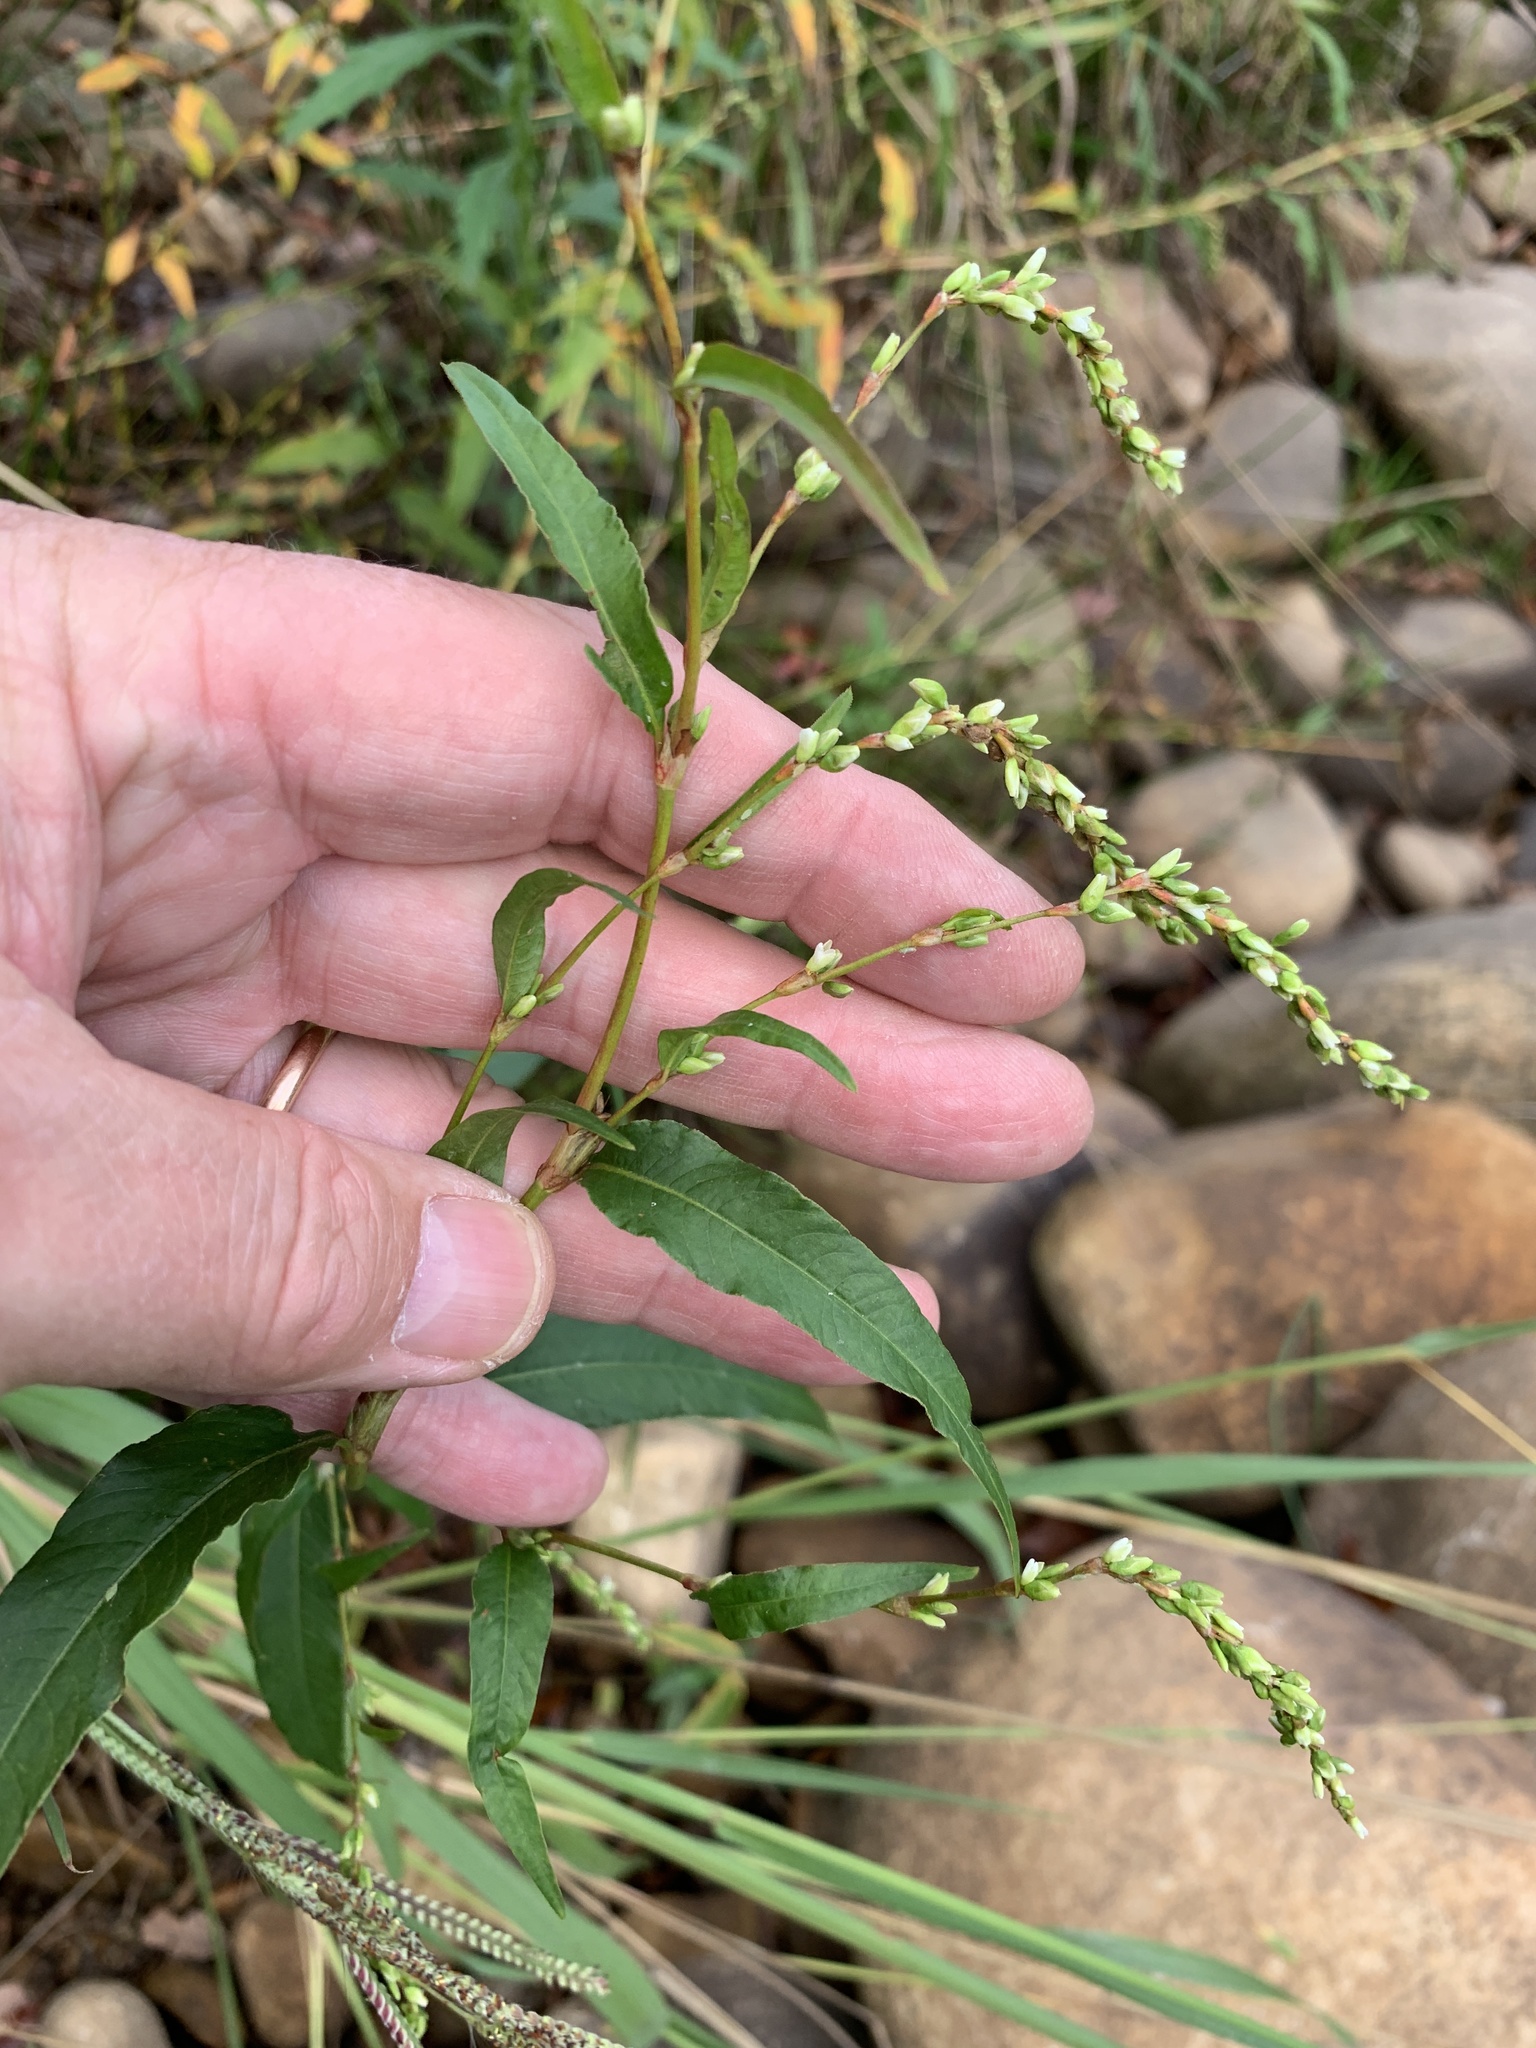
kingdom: Plantae
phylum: Tracheophyta
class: Magnoliopsida
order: Caryophyllales
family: Polygonaceae
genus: Persicaria
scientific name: Persicaria hydropiper
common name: Water-pepper
